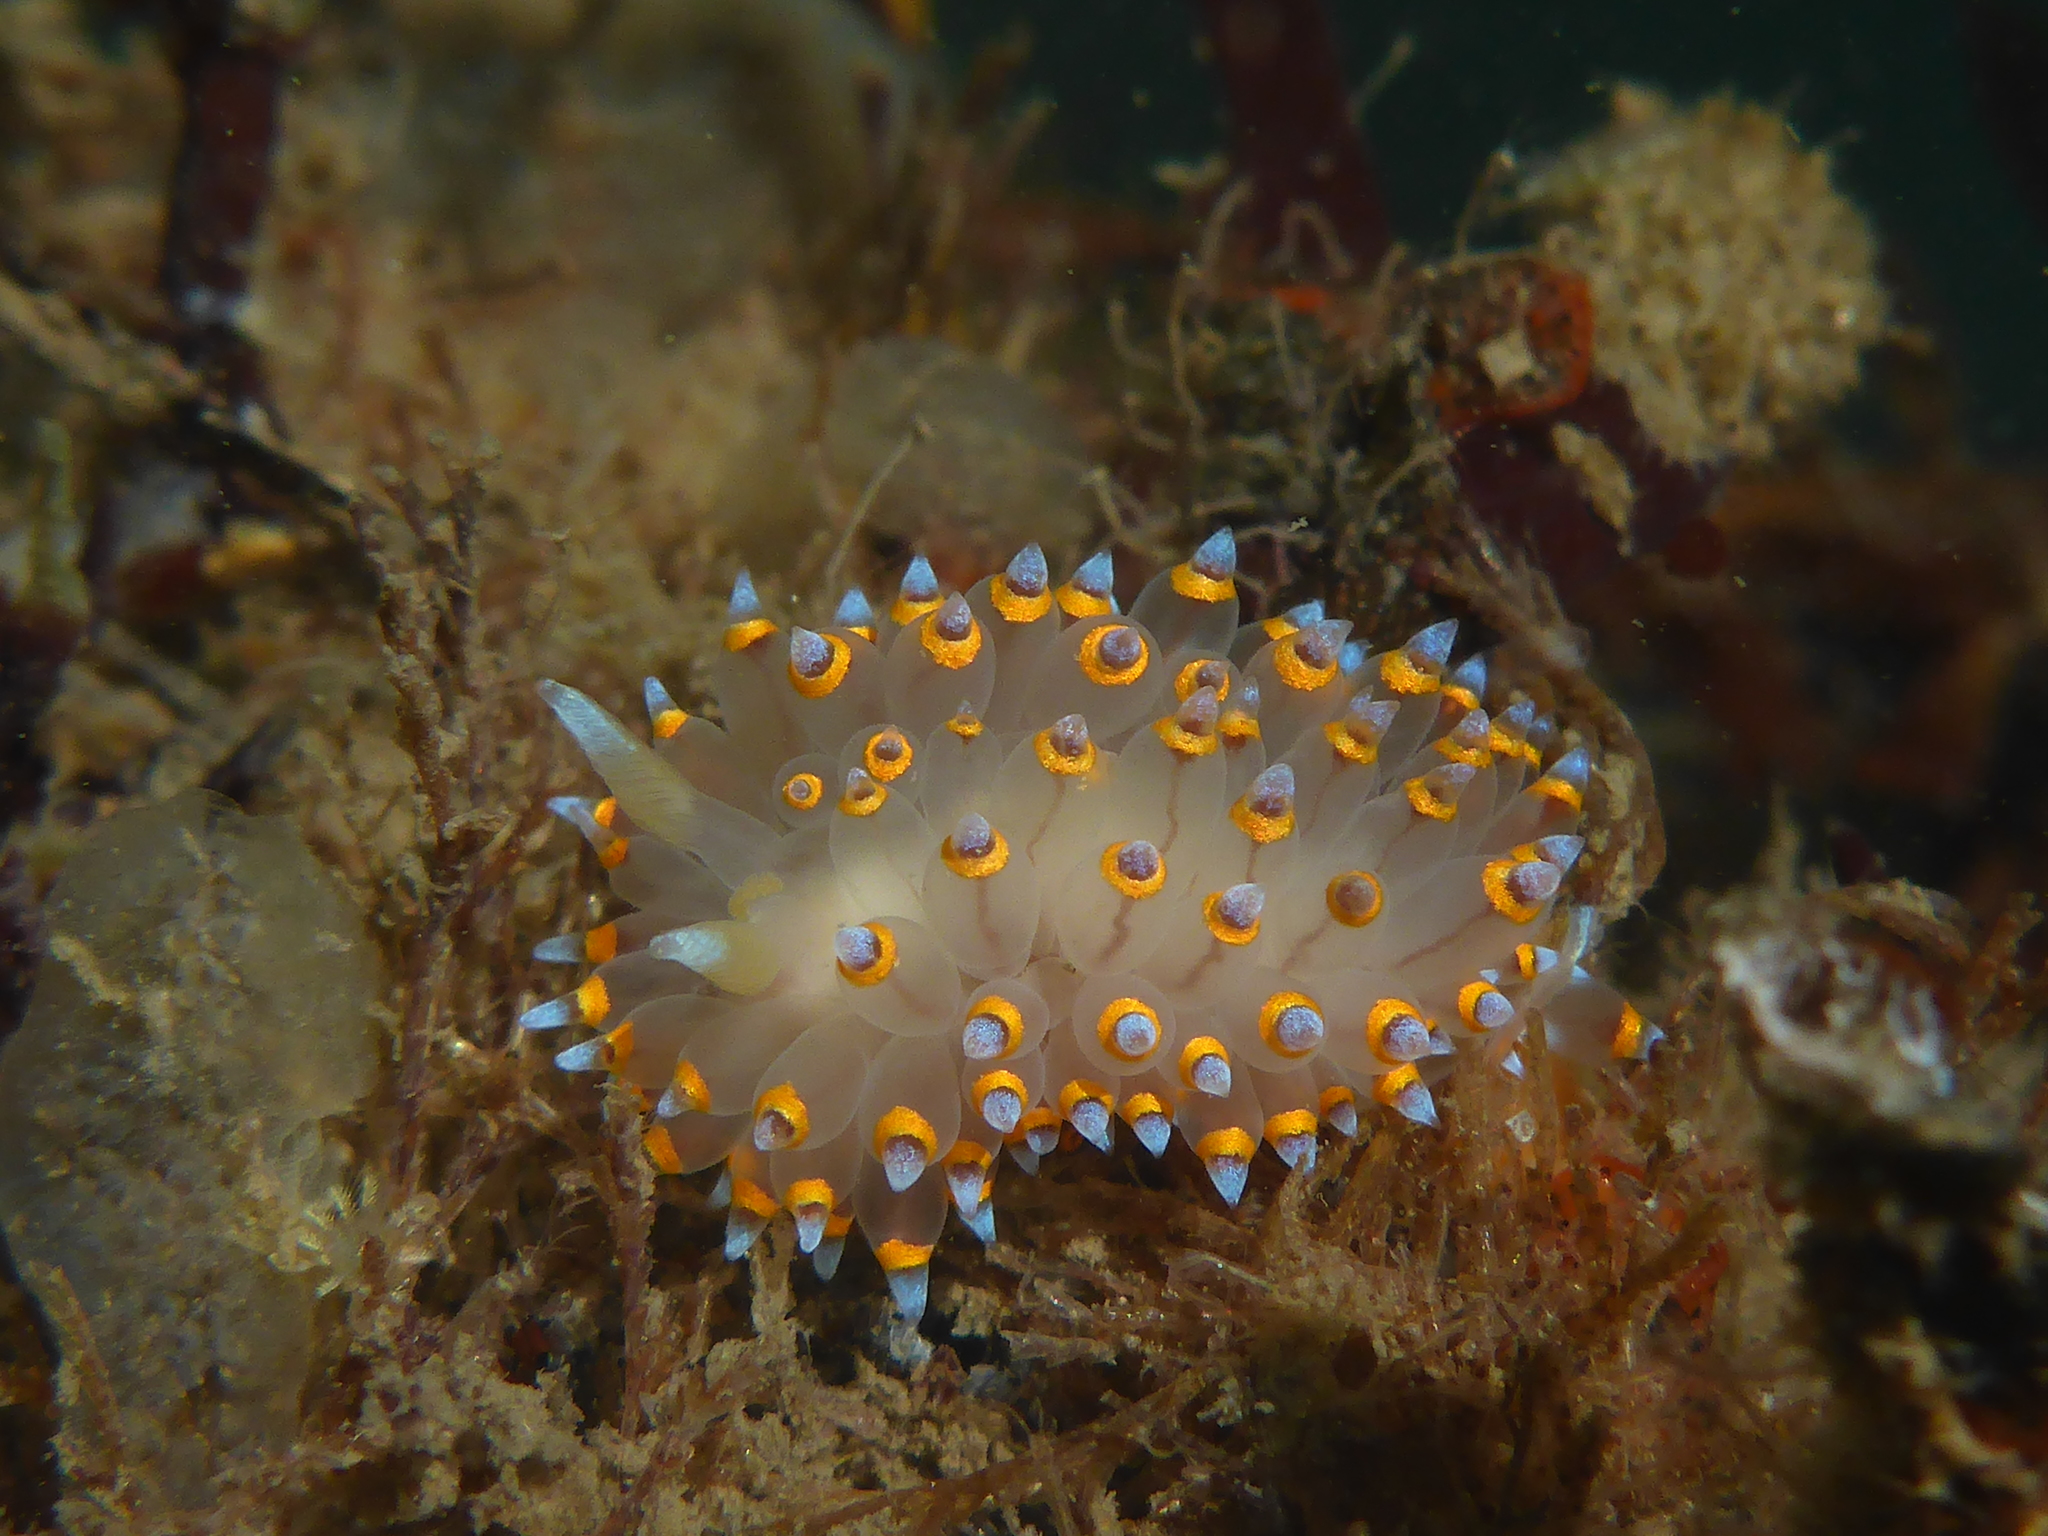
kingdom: Animalia
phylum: Mollusca
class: Gastropoda
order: Nudibranchia
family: Janolidae
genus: Antiopella
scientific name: Antiopella barbarensis
